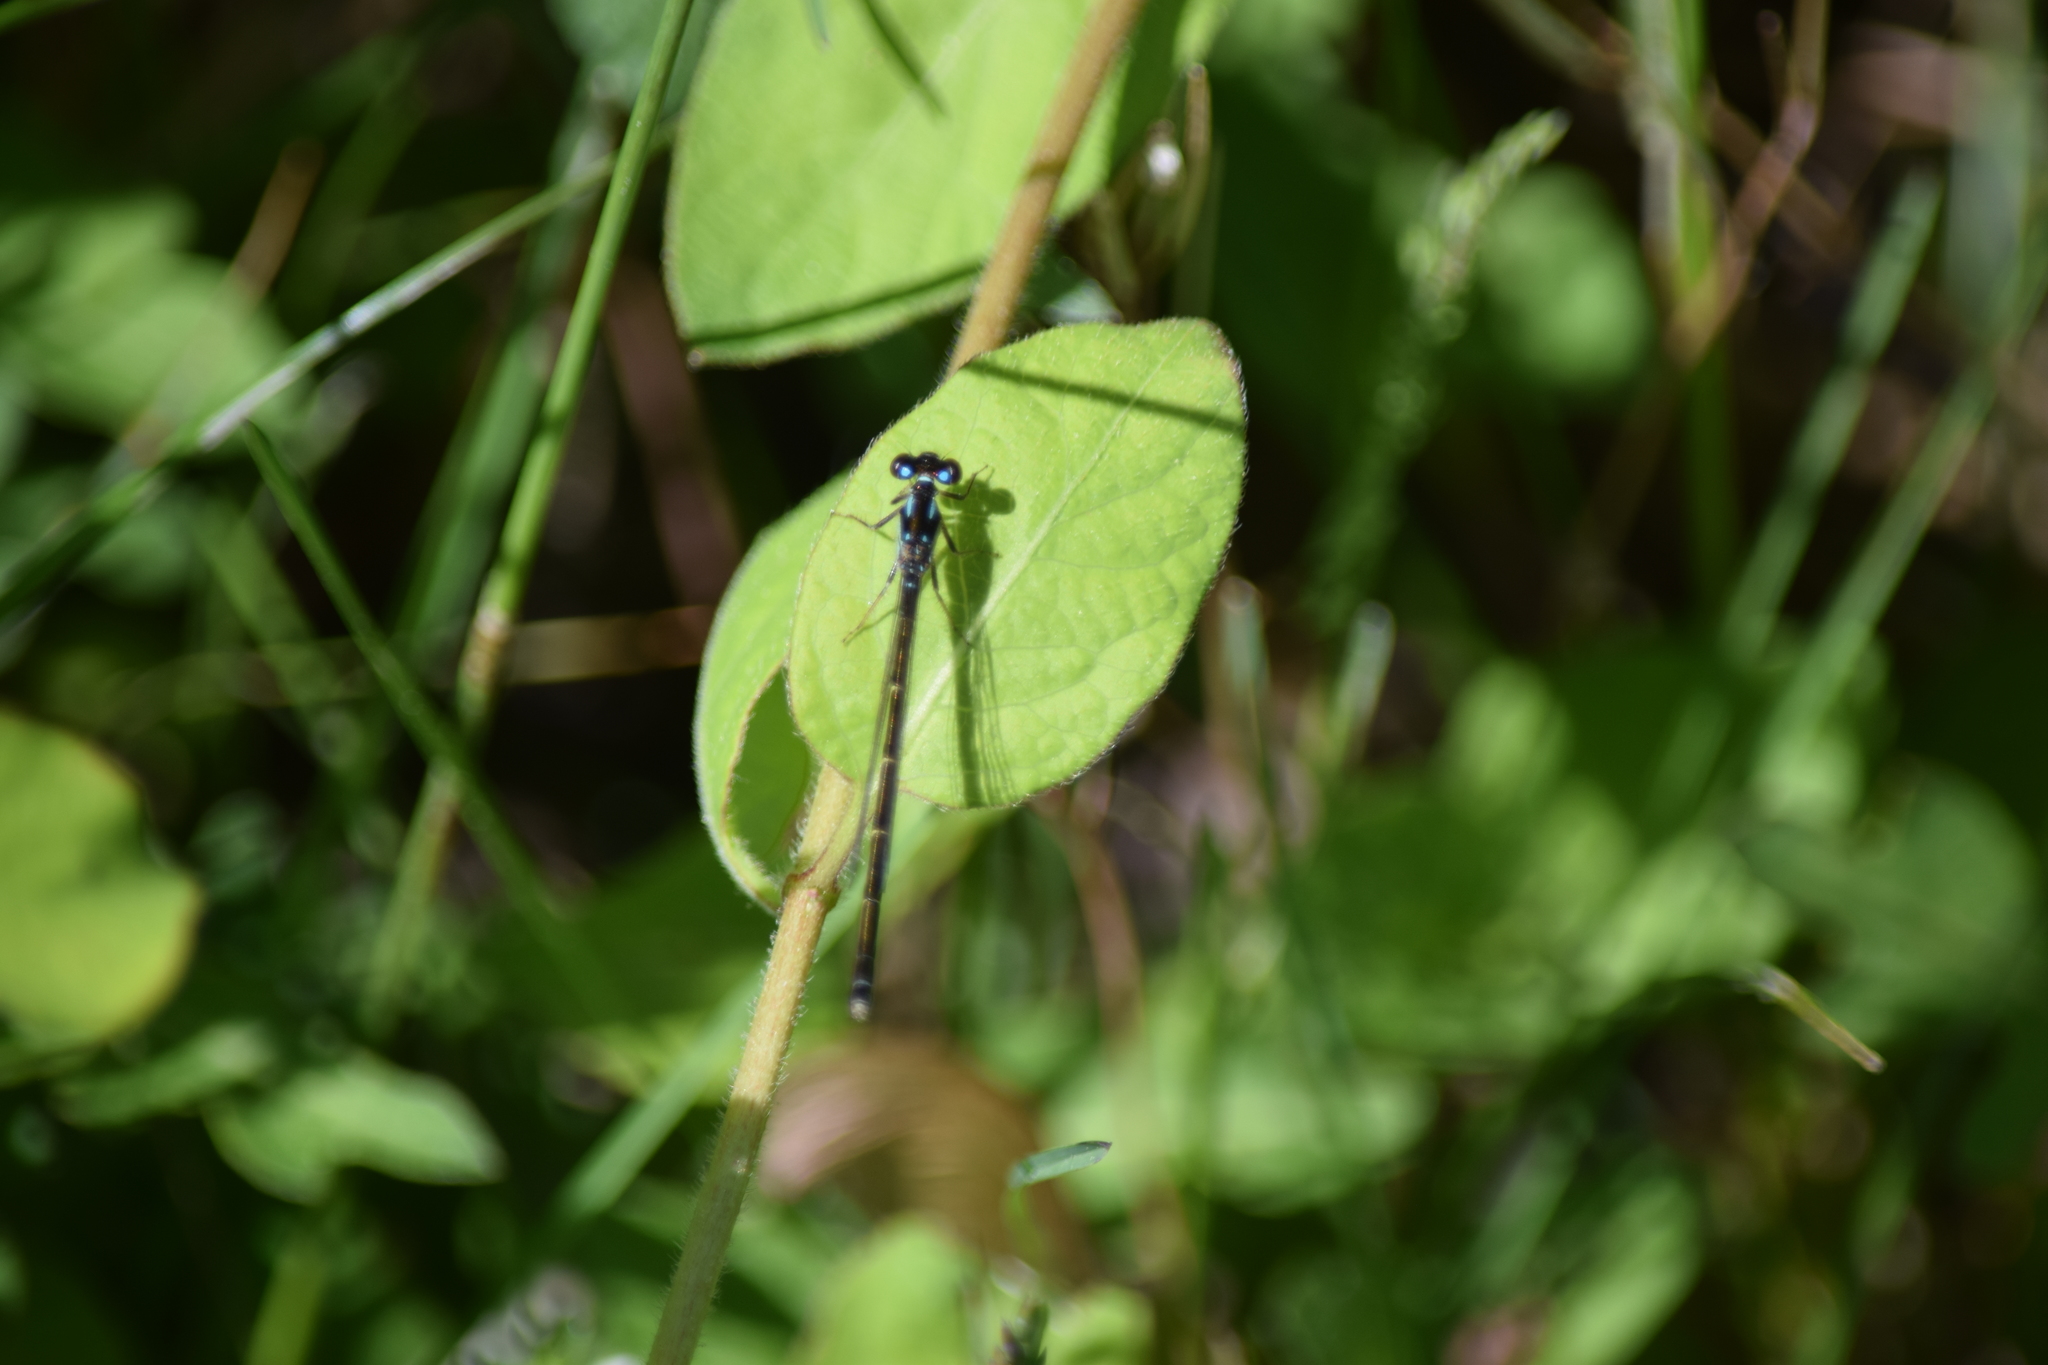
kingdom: Animalia
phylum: Arthropoda
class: Insecta
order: Odonata
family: Coenagrionidae
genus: Ischnura
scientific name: Ischnura posita
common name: Fragile forktail
